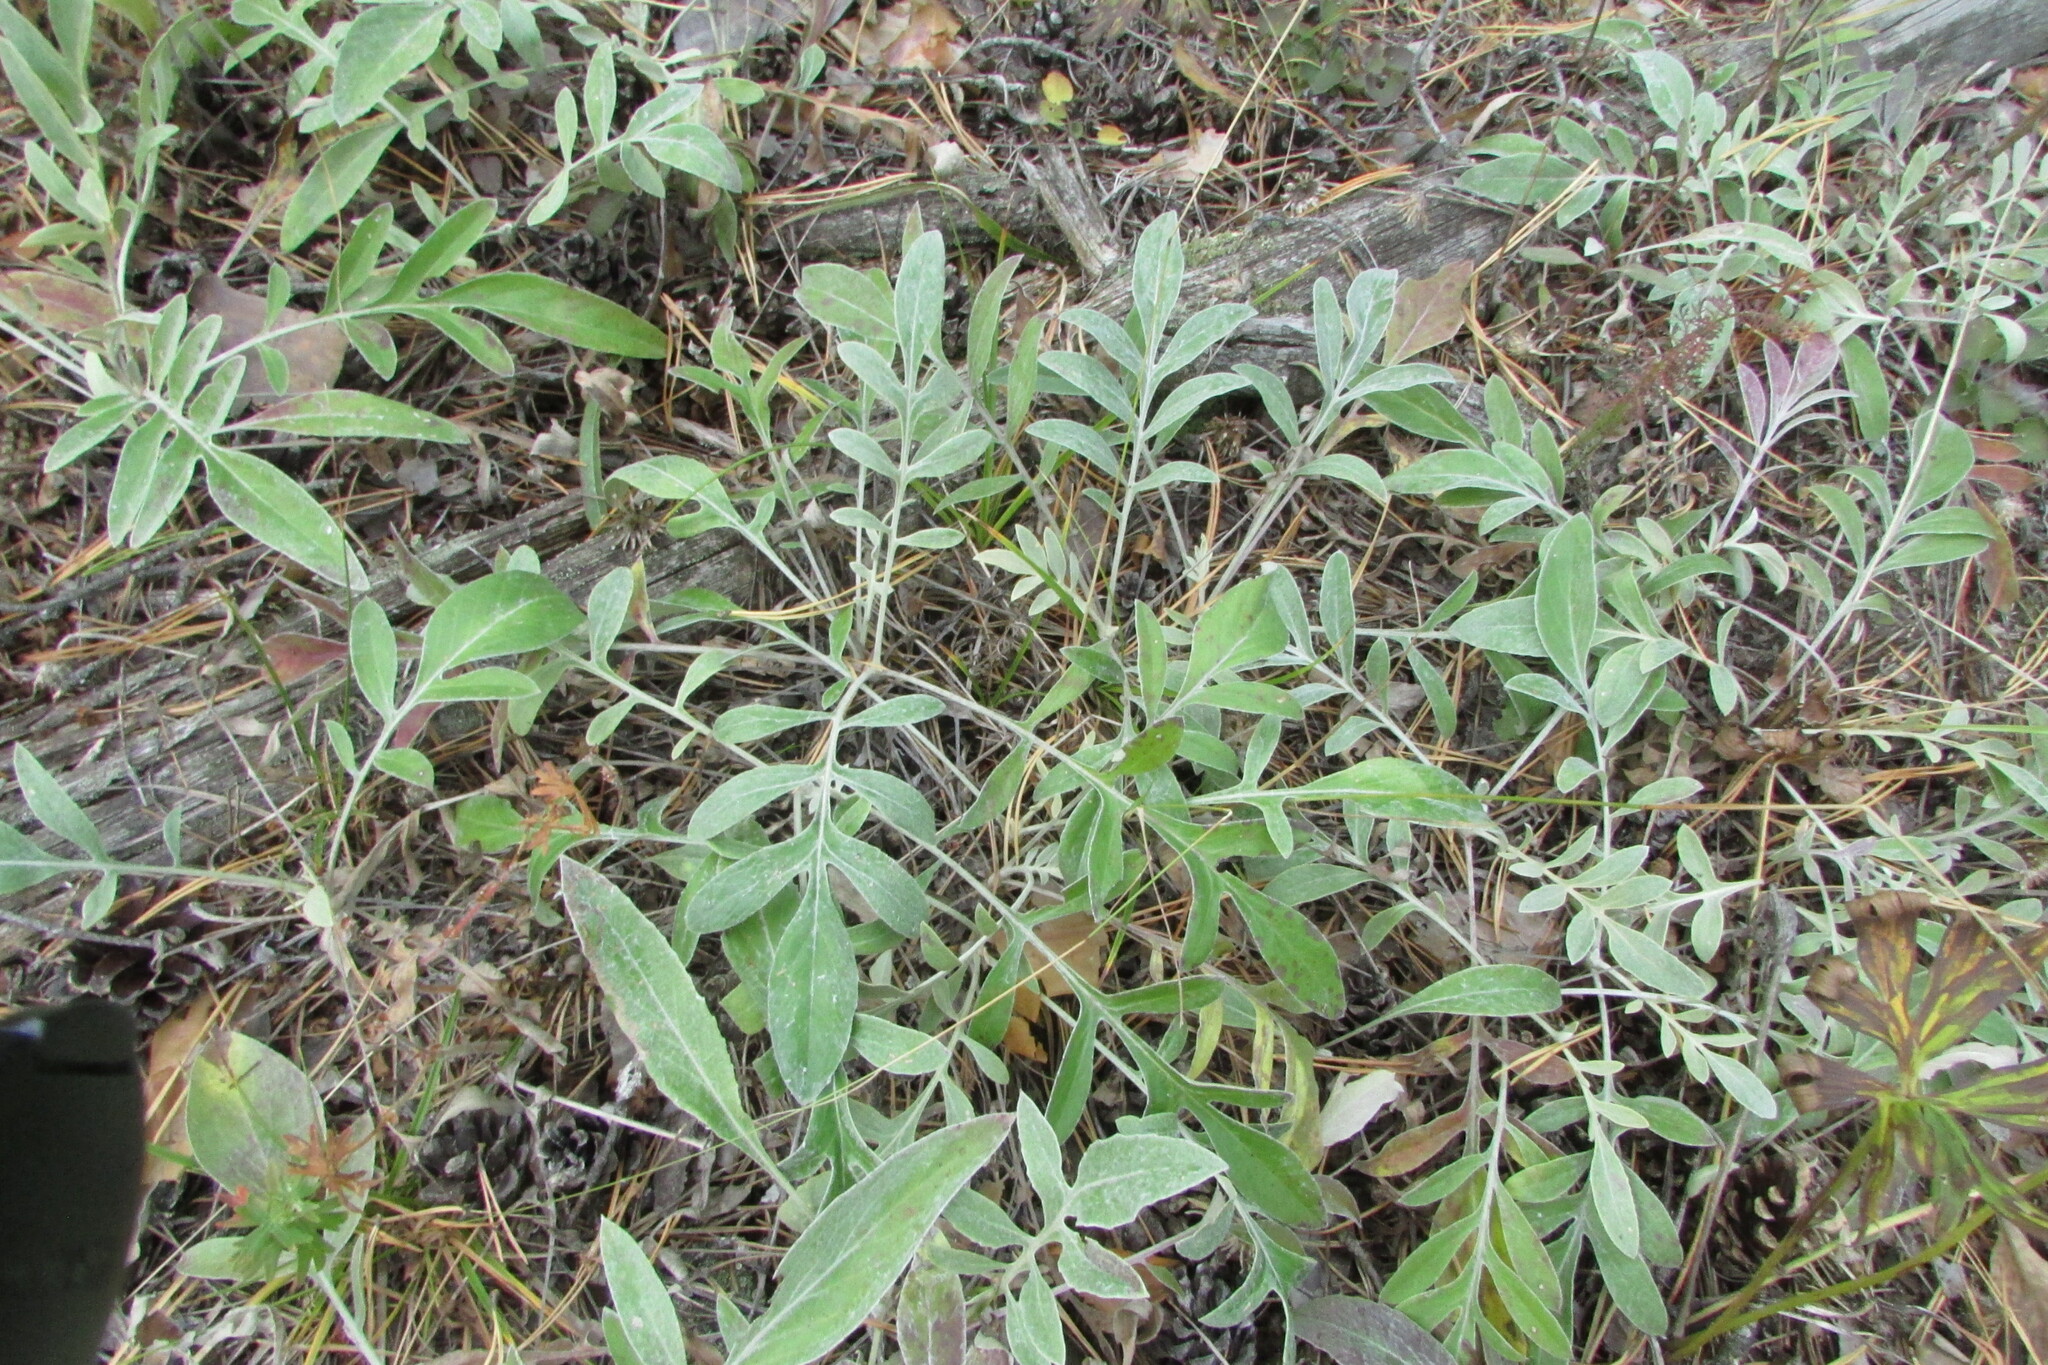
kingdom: Plantae
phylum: Tracheophyta
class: Magnoliopsida
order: Asterales
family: Asteraceae
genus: Psephellus
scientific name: Psephellus sumensis
